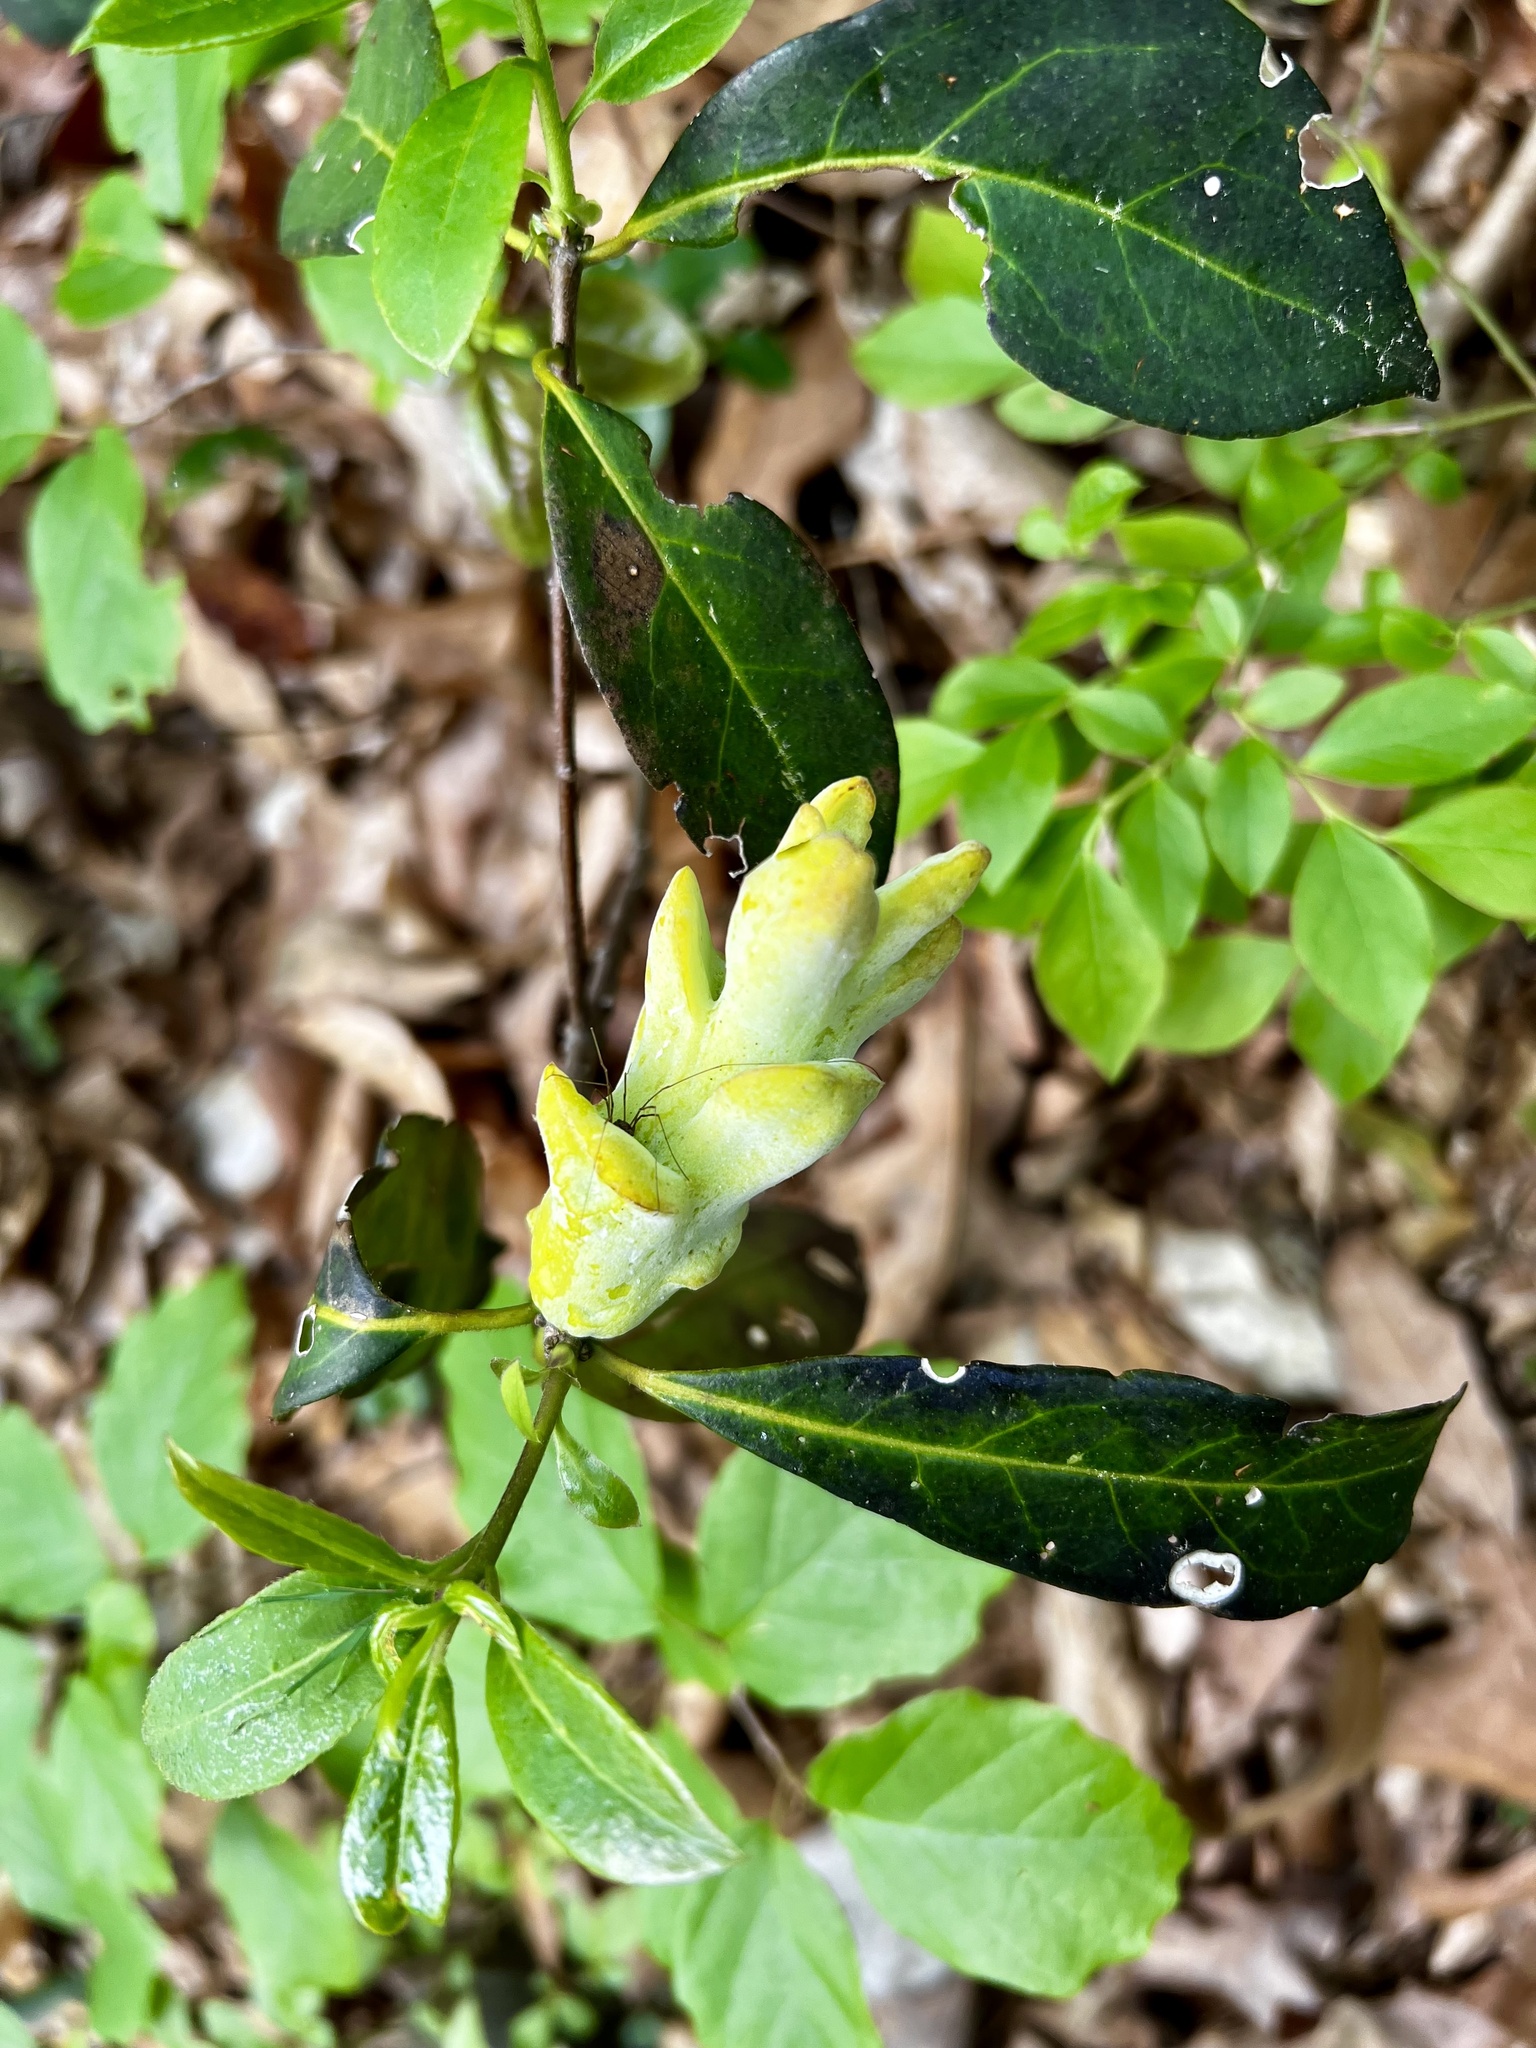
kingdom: Fungi
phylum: Basidiomycota
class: Exobasidiomycetes
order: Exobasidiales
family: Exobasidiaceae
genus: Exobasidium
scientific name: Exobasidium symploci
